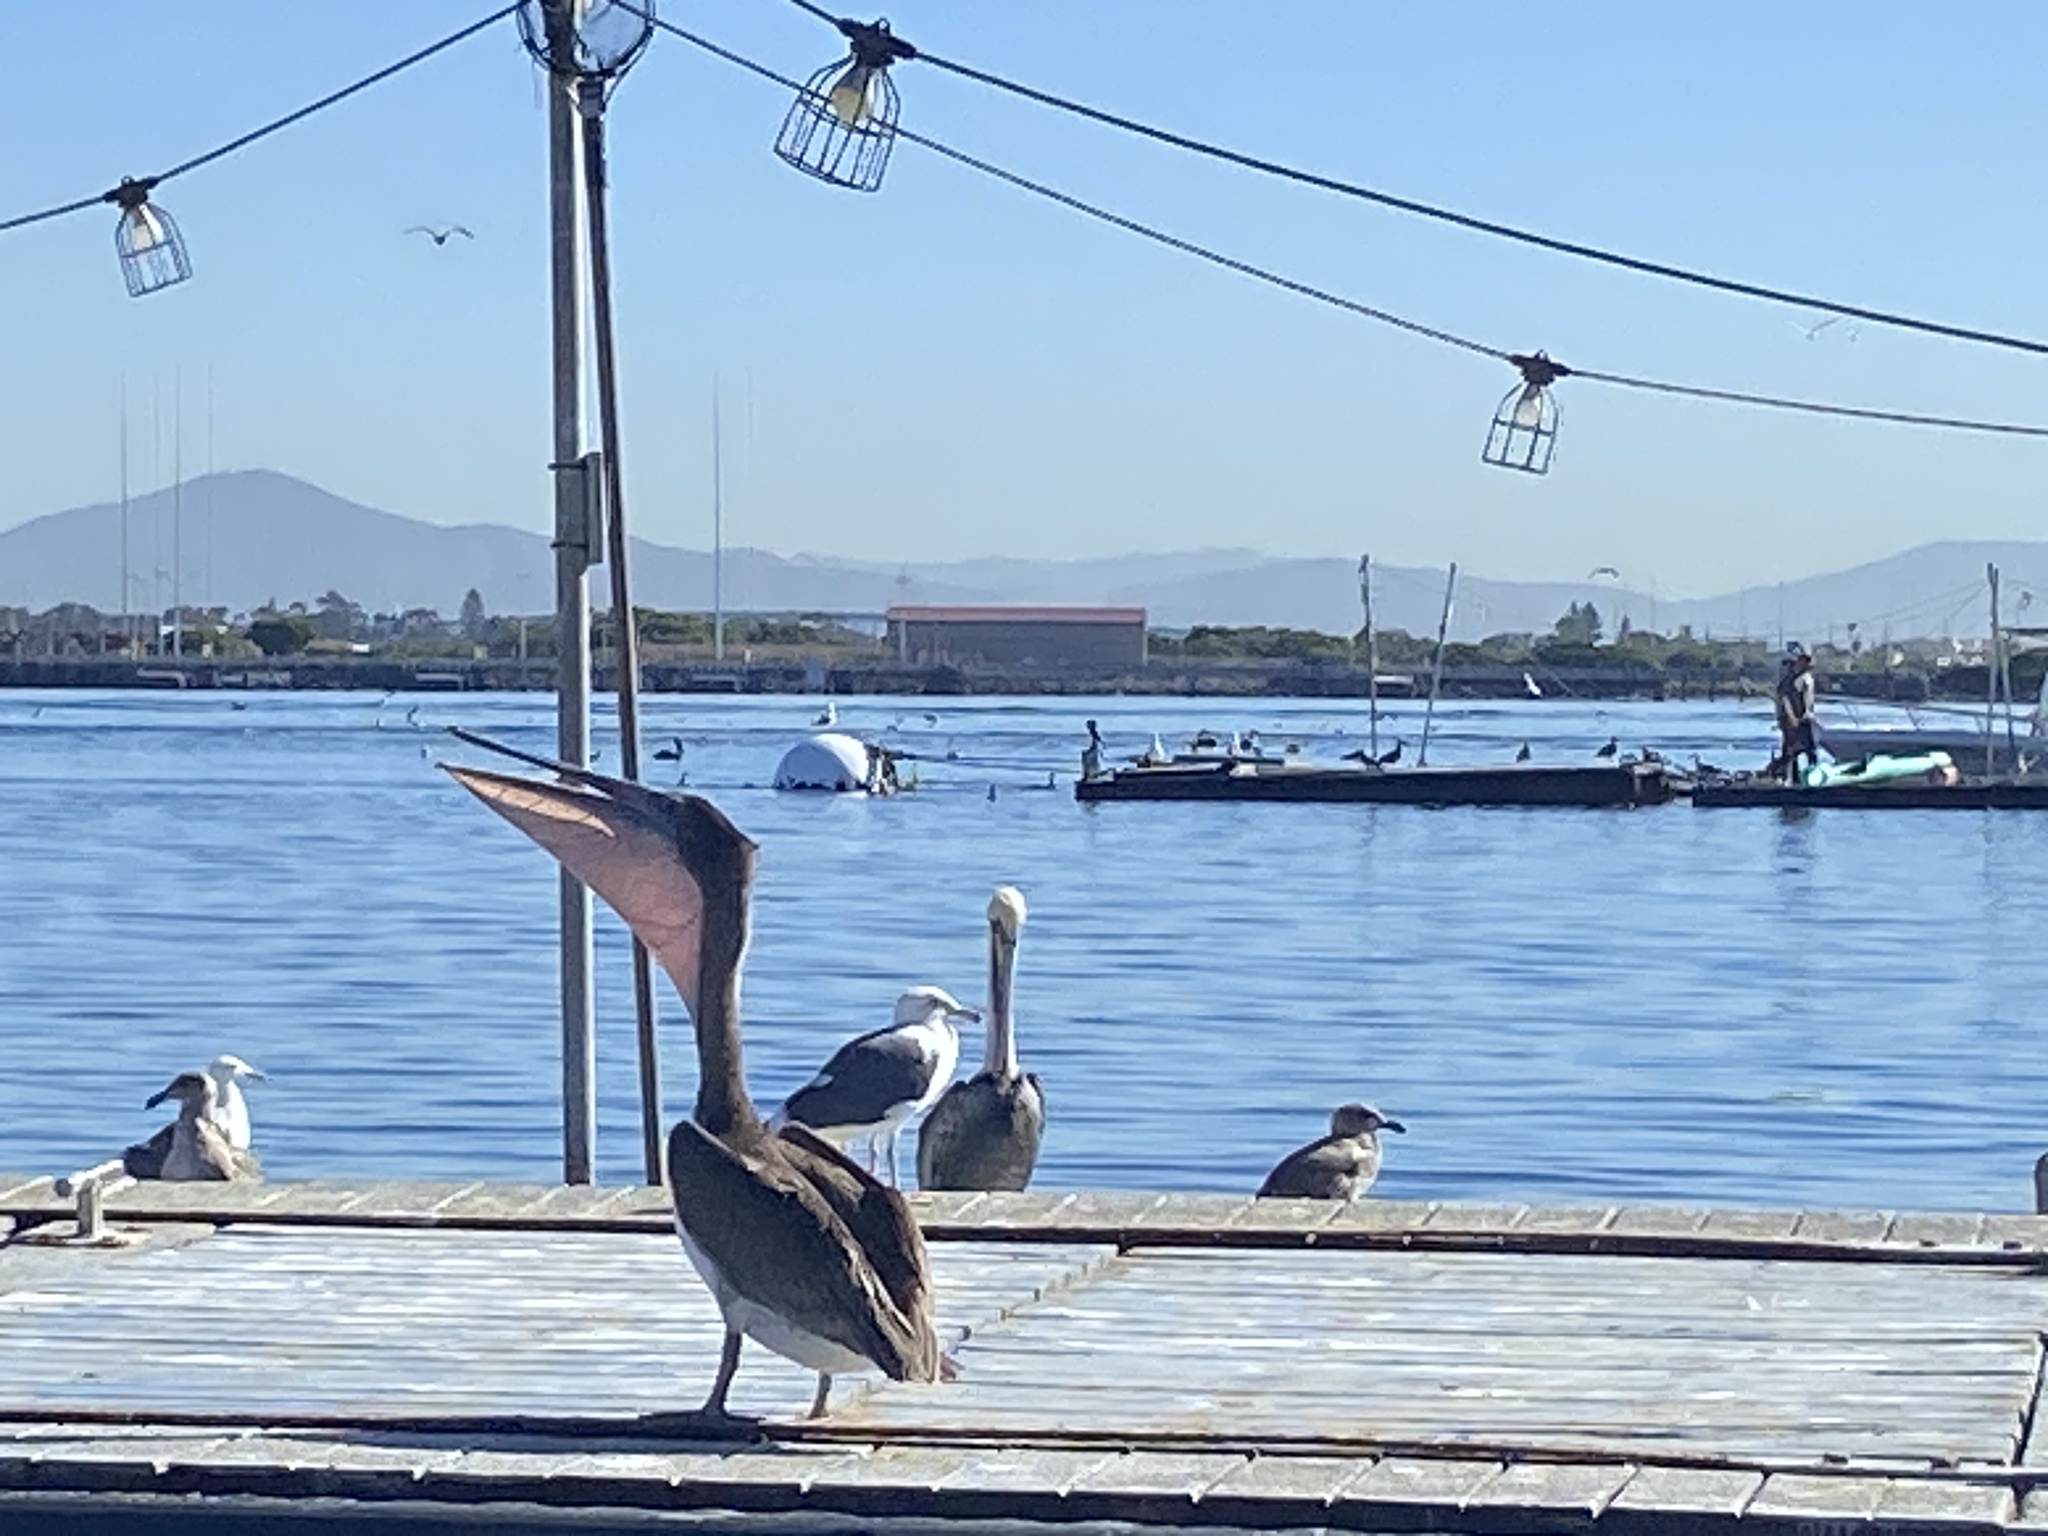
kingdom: Animalia
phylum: Chordata
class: Aves
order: Pelecaniformes
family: Pelecanidae
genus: Pelecanus
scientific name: Pelecanus occidentalis
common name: Brown pelican
